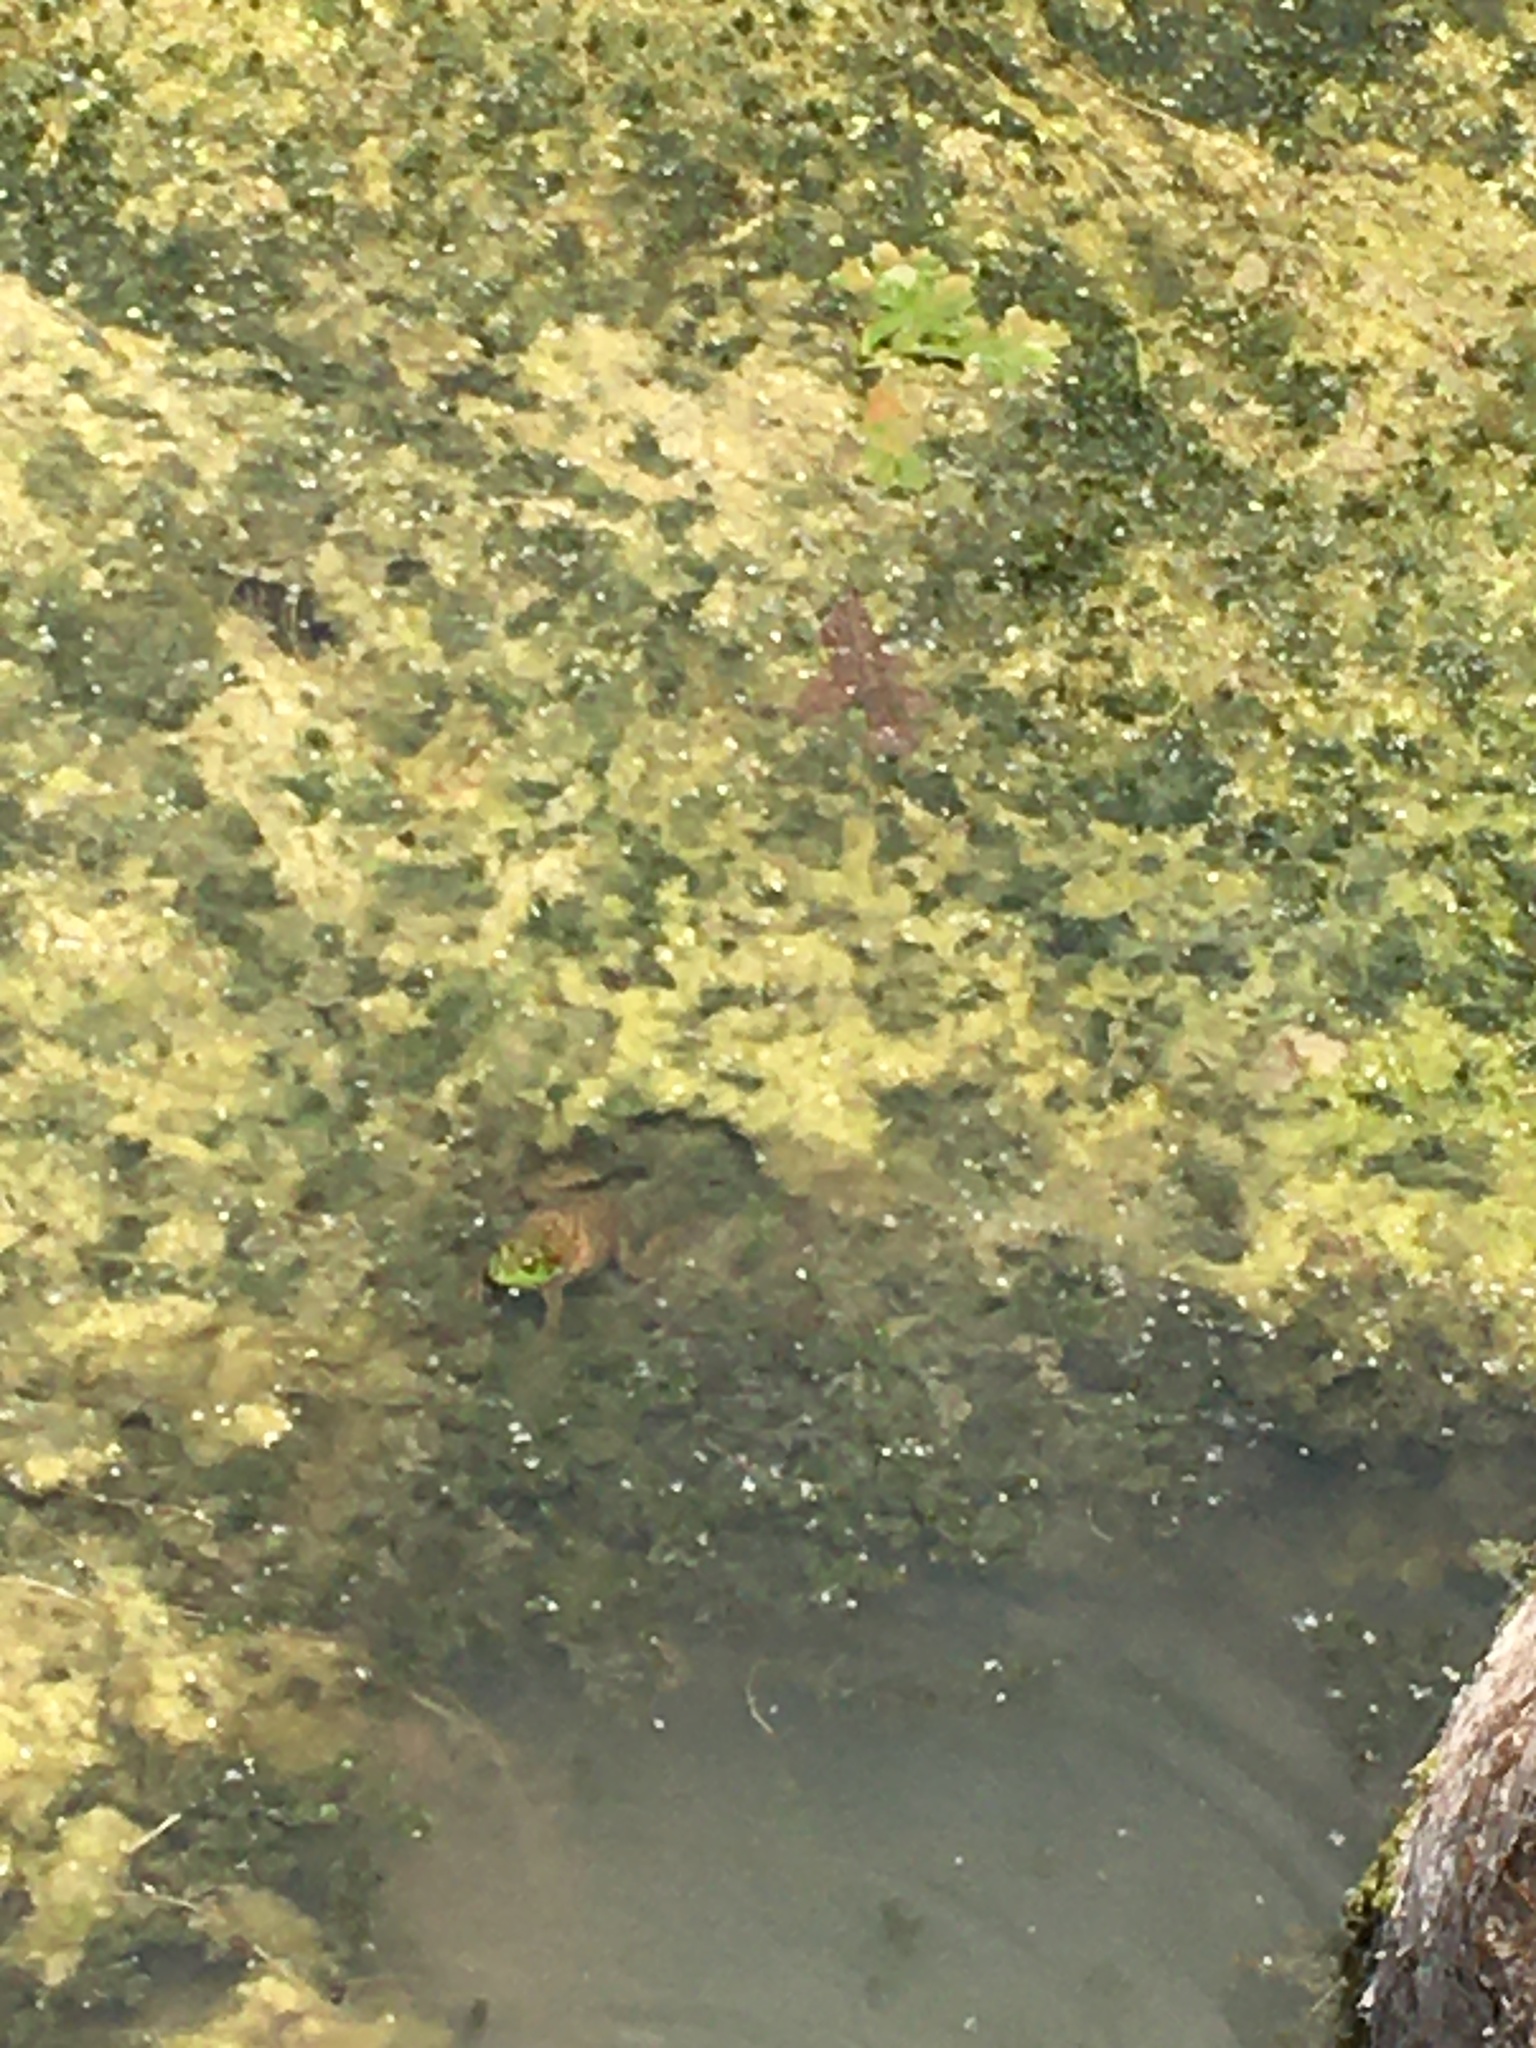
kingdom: Animalia
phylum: Chordata
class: Amphibia
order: Anura
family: Ranidae
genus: Lithobates
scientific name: Lithobates catesbeianus
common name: American bullfrog
